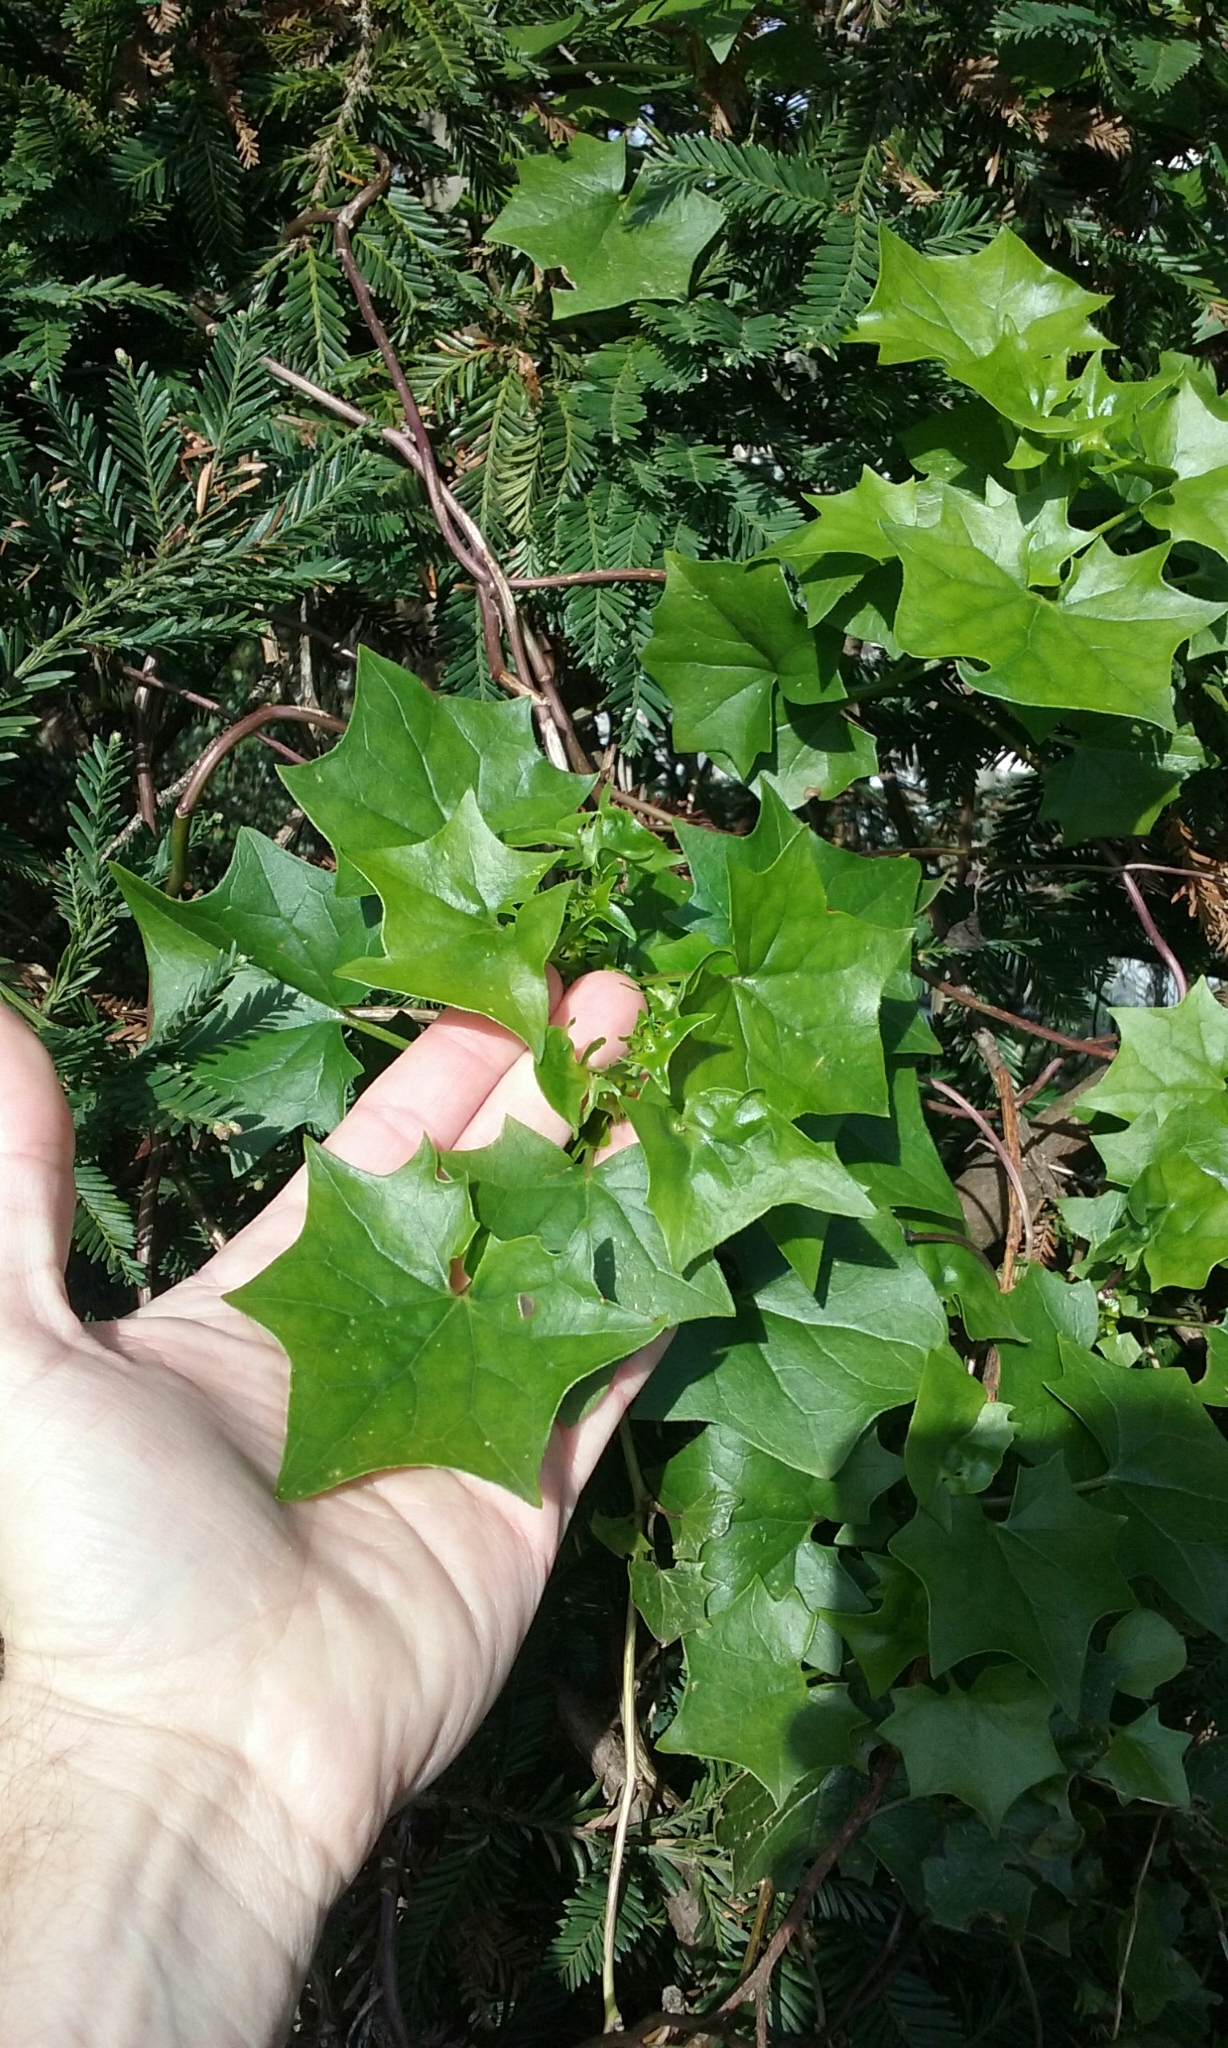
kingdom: Plantae
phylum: Tracheophyta
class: Magnoliopsida
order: Asterales
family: Asteraceae
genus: Delairea
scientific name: Delairea odorata
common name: Cape-ivy
